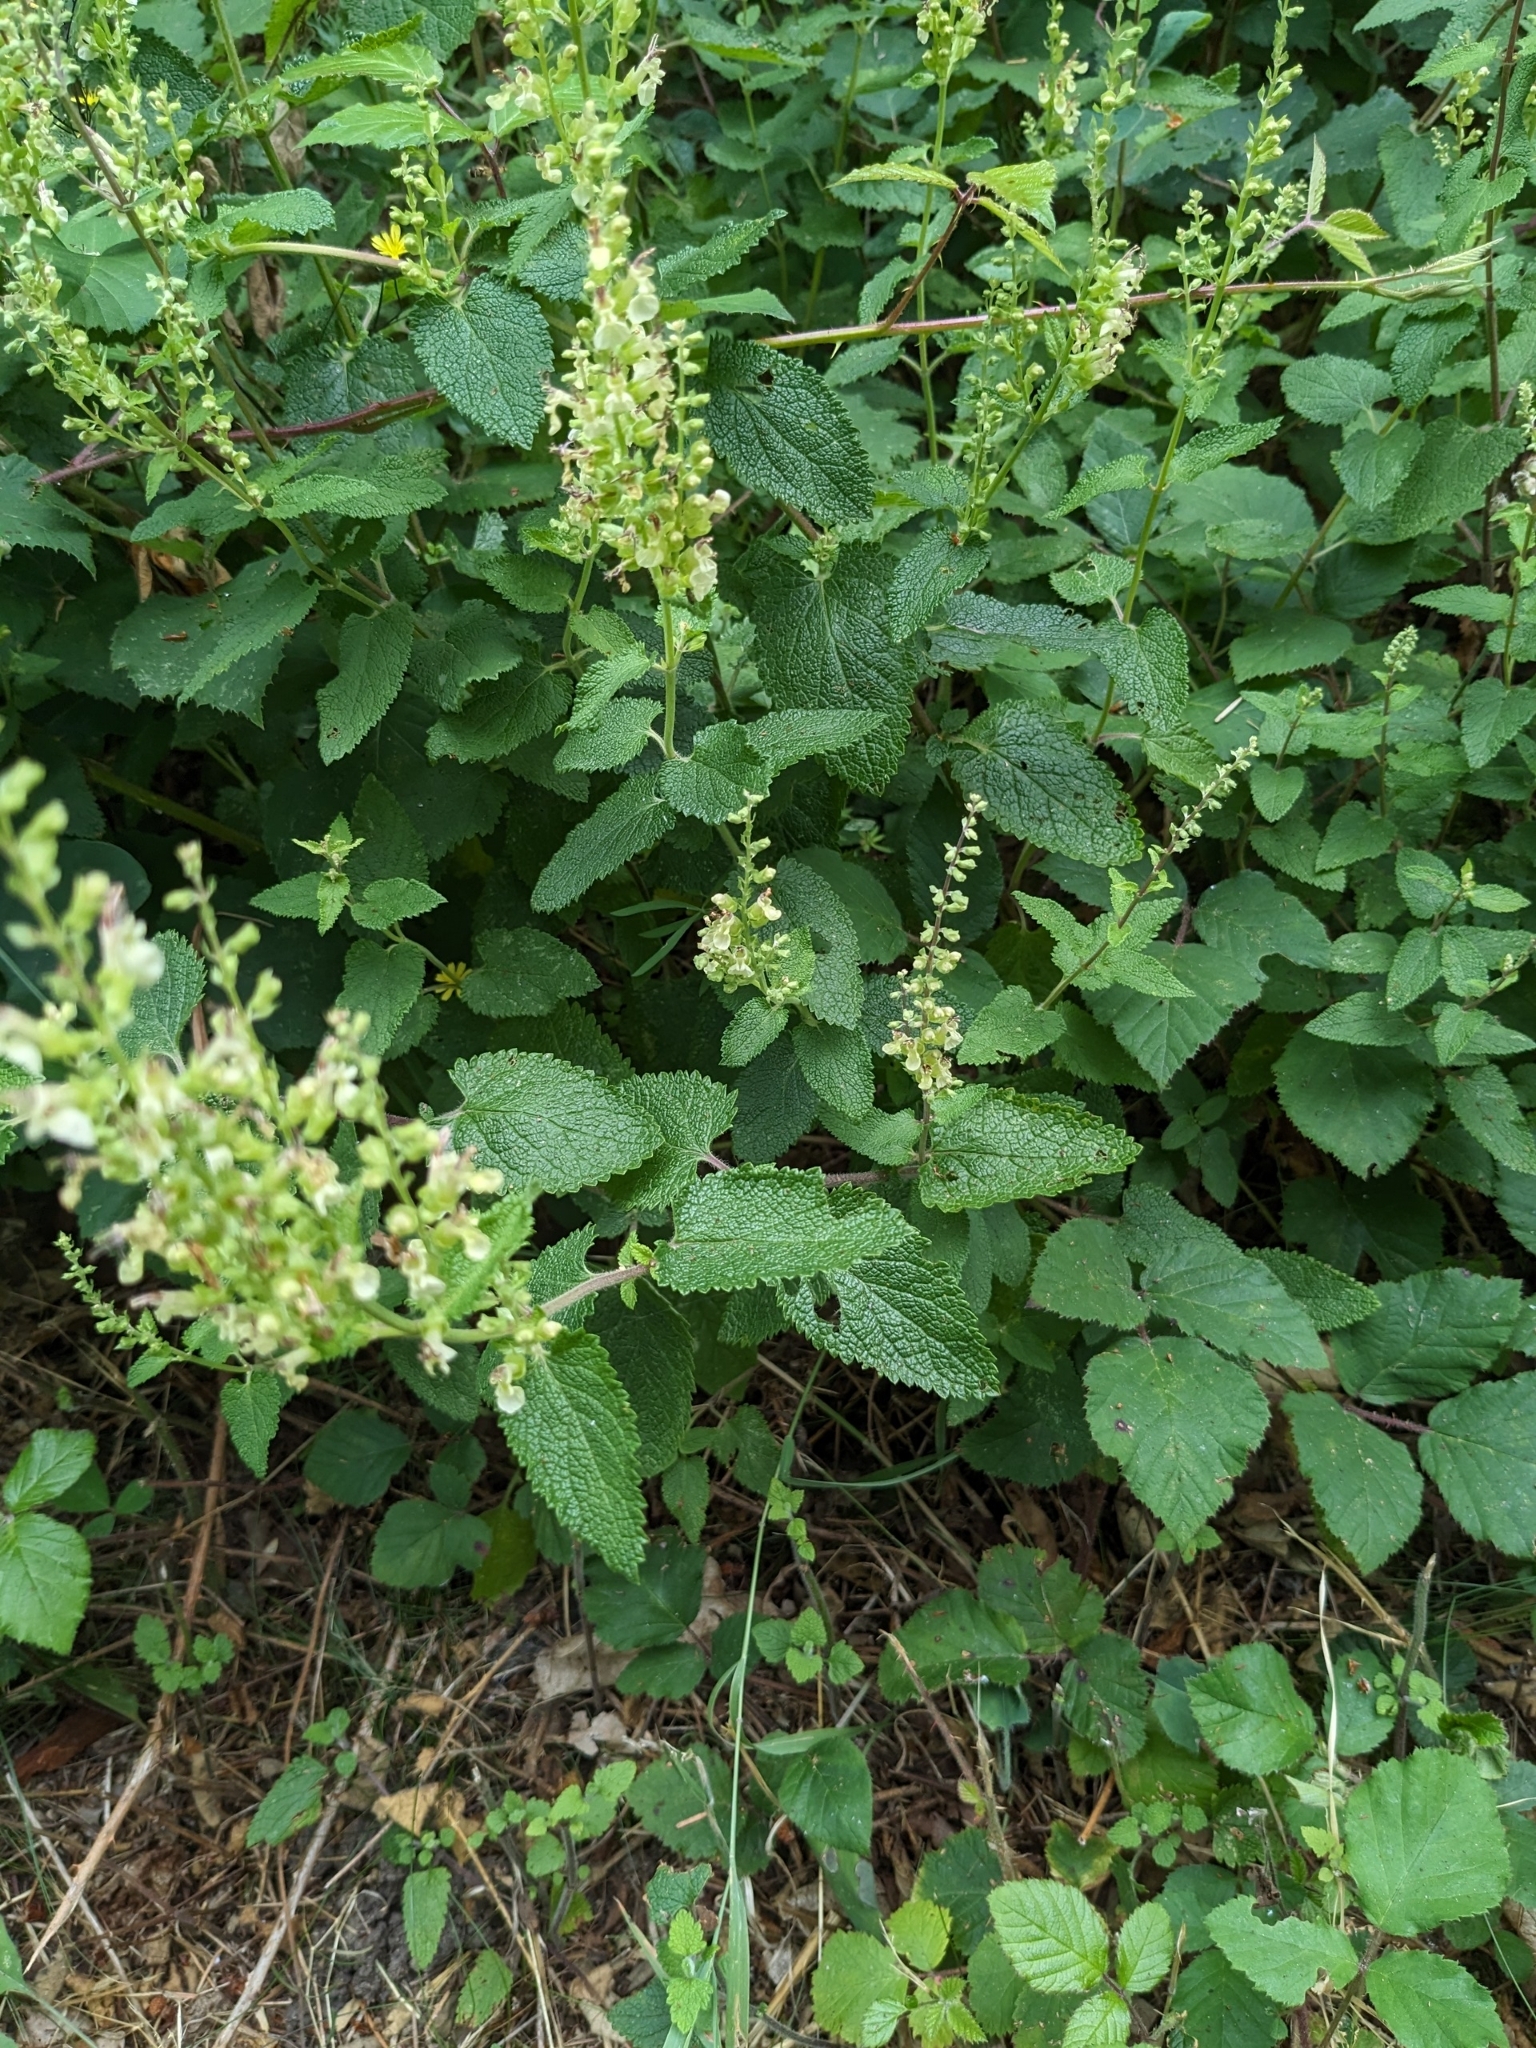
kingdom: Plantae
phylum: Tracheophyta
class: Magnoliopsida
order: Lamiales
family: Lamiaceae
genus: Teucrium
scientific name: Teucrium scorodonia
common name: Woodland germander
